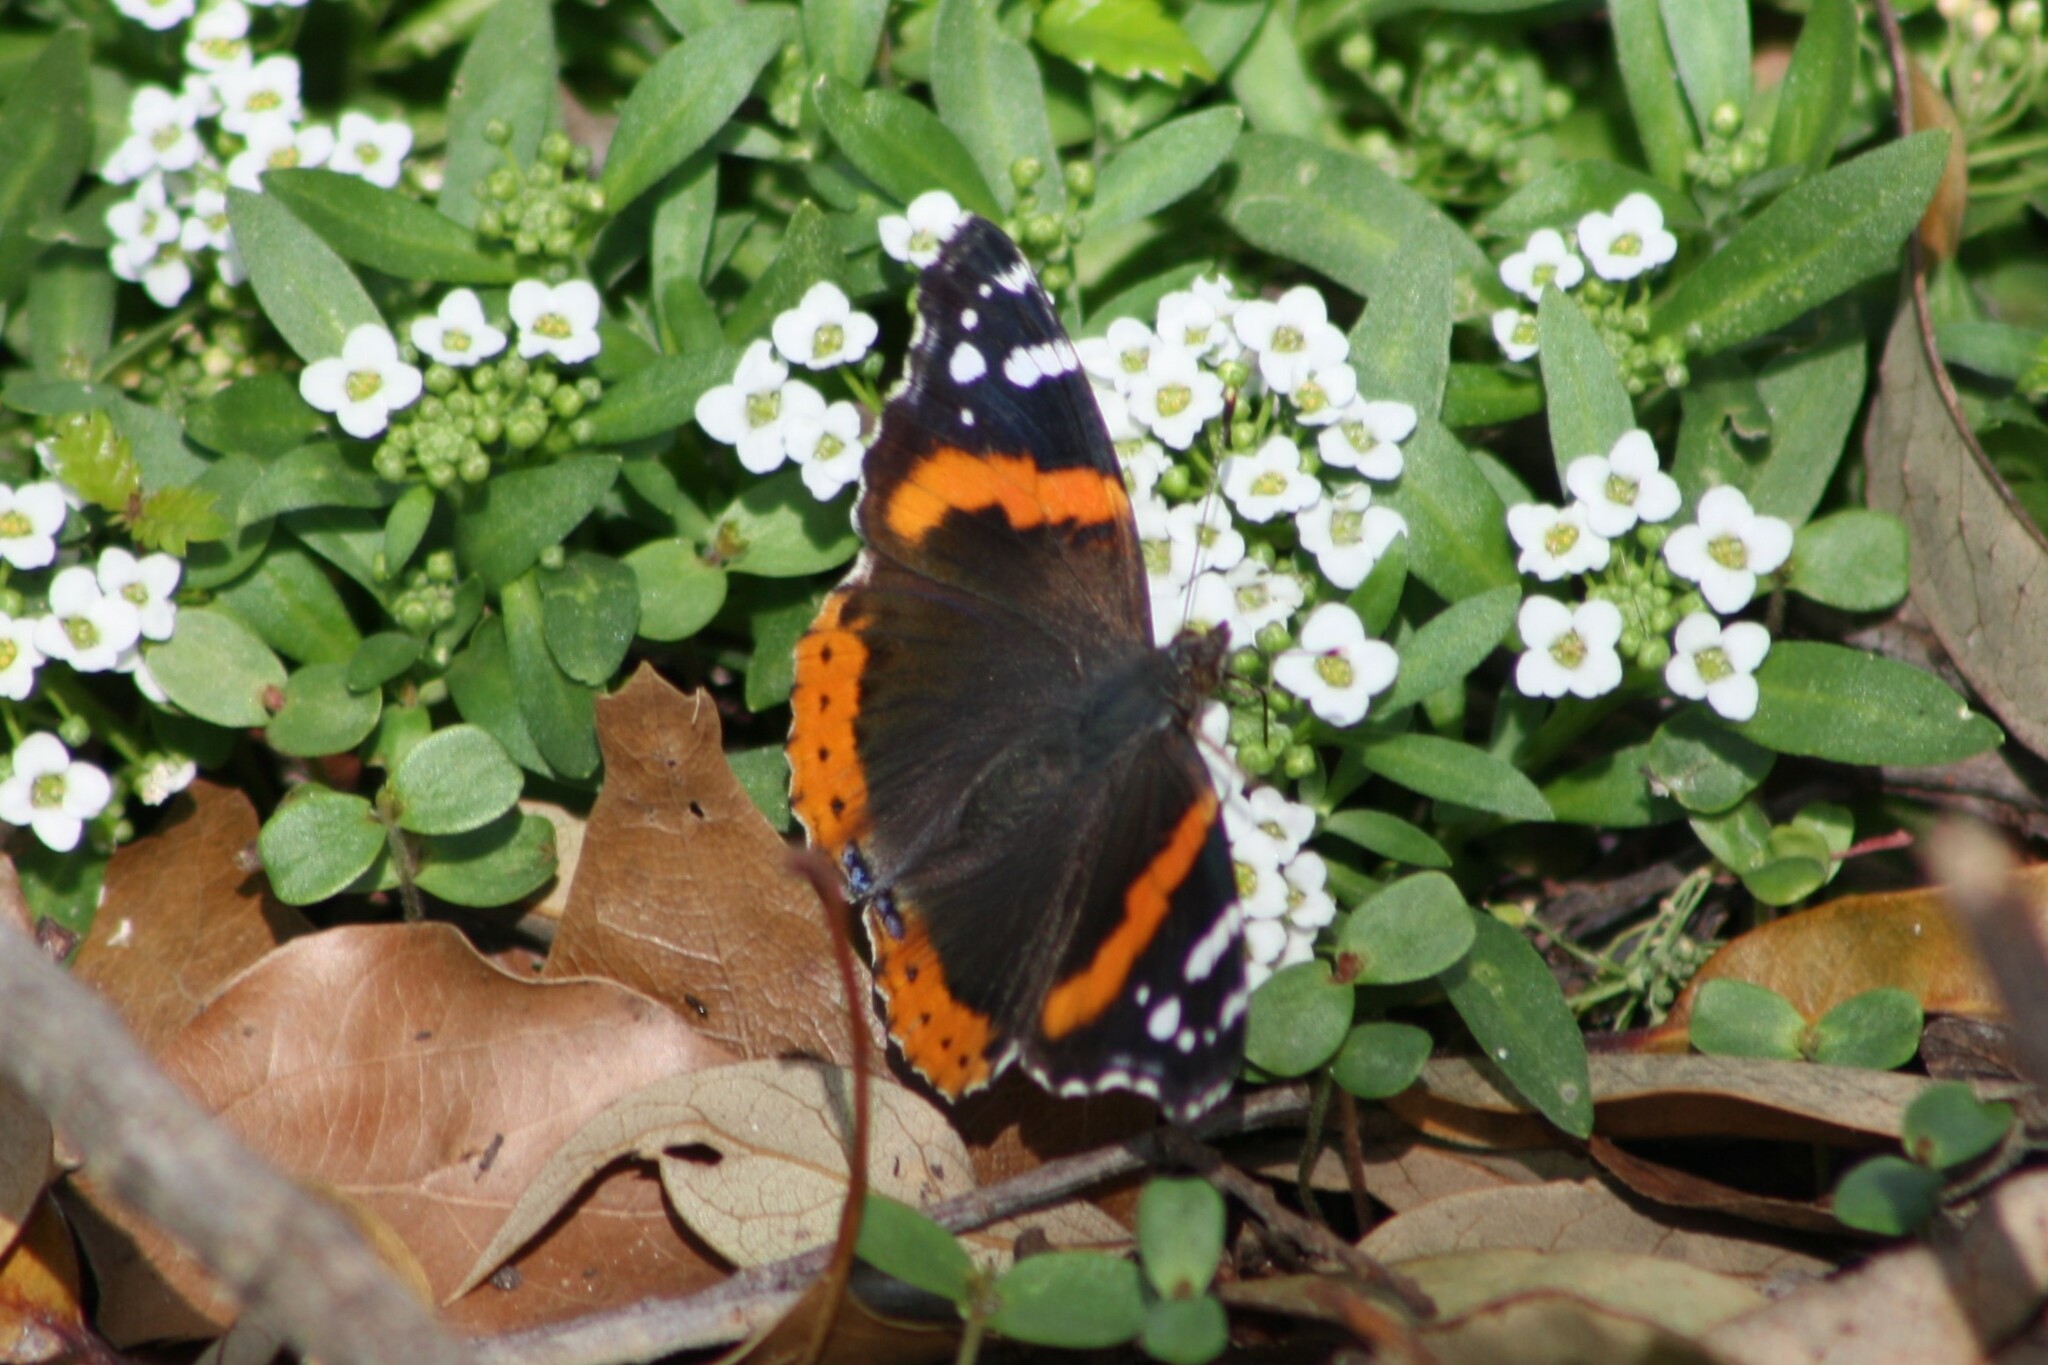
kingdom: Animalia
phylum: Arthropoda
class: Insecta
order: Lepidoptera
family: Nymphalidae
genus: Vanessa
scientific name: Vanessa atalanta
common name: Red admiral
